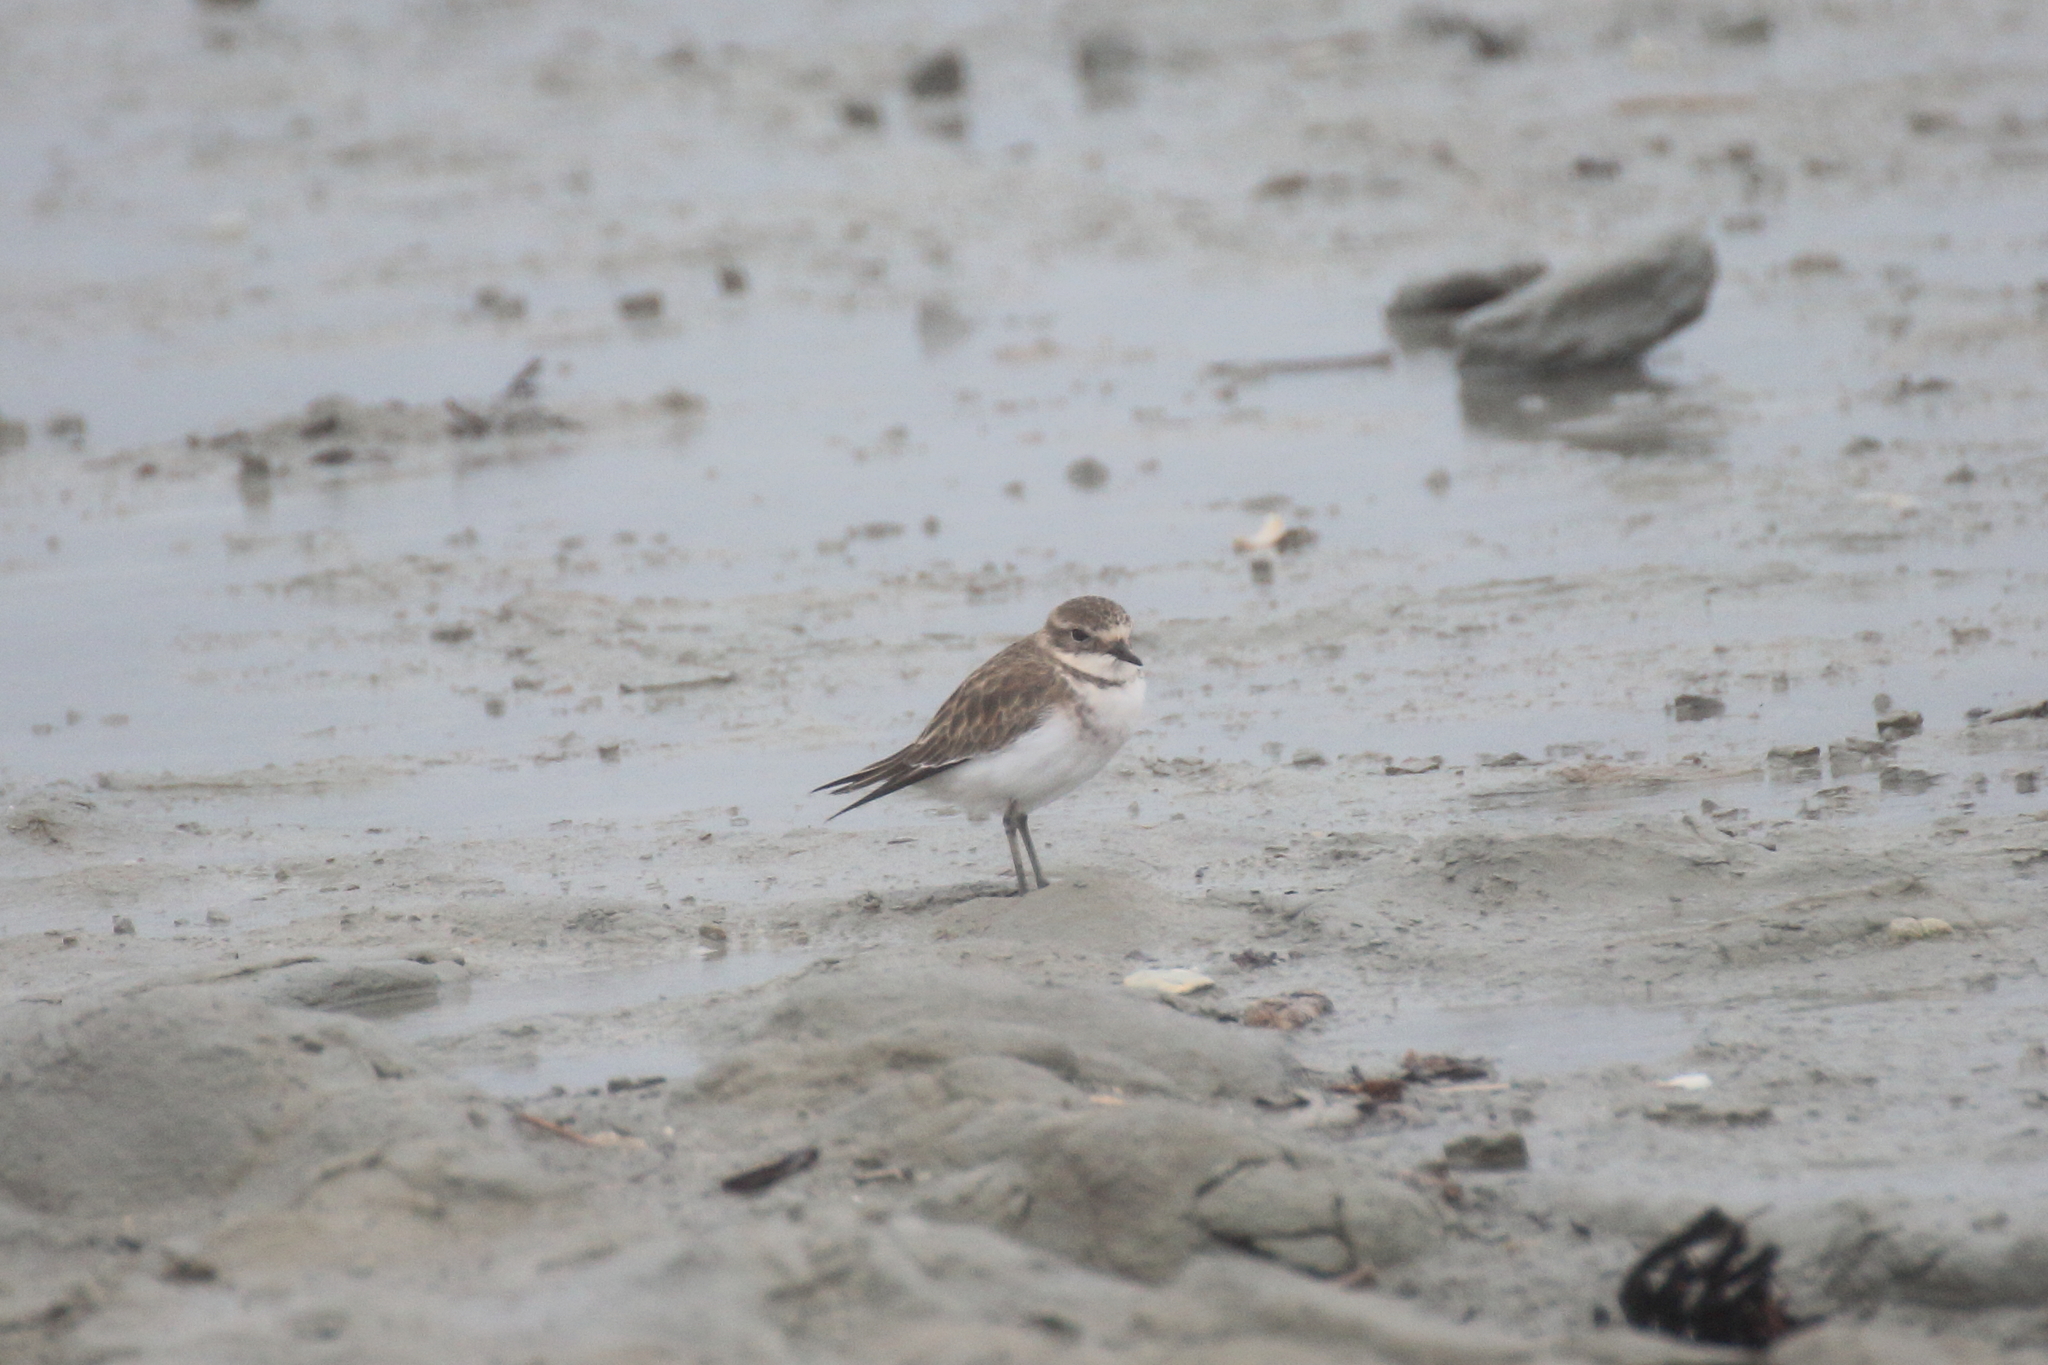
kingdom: Animalia
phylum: Chordata
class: Aves
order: Charadriiformes
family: Charadriidae
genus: Anarhynchus
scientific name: Anarhynchus
